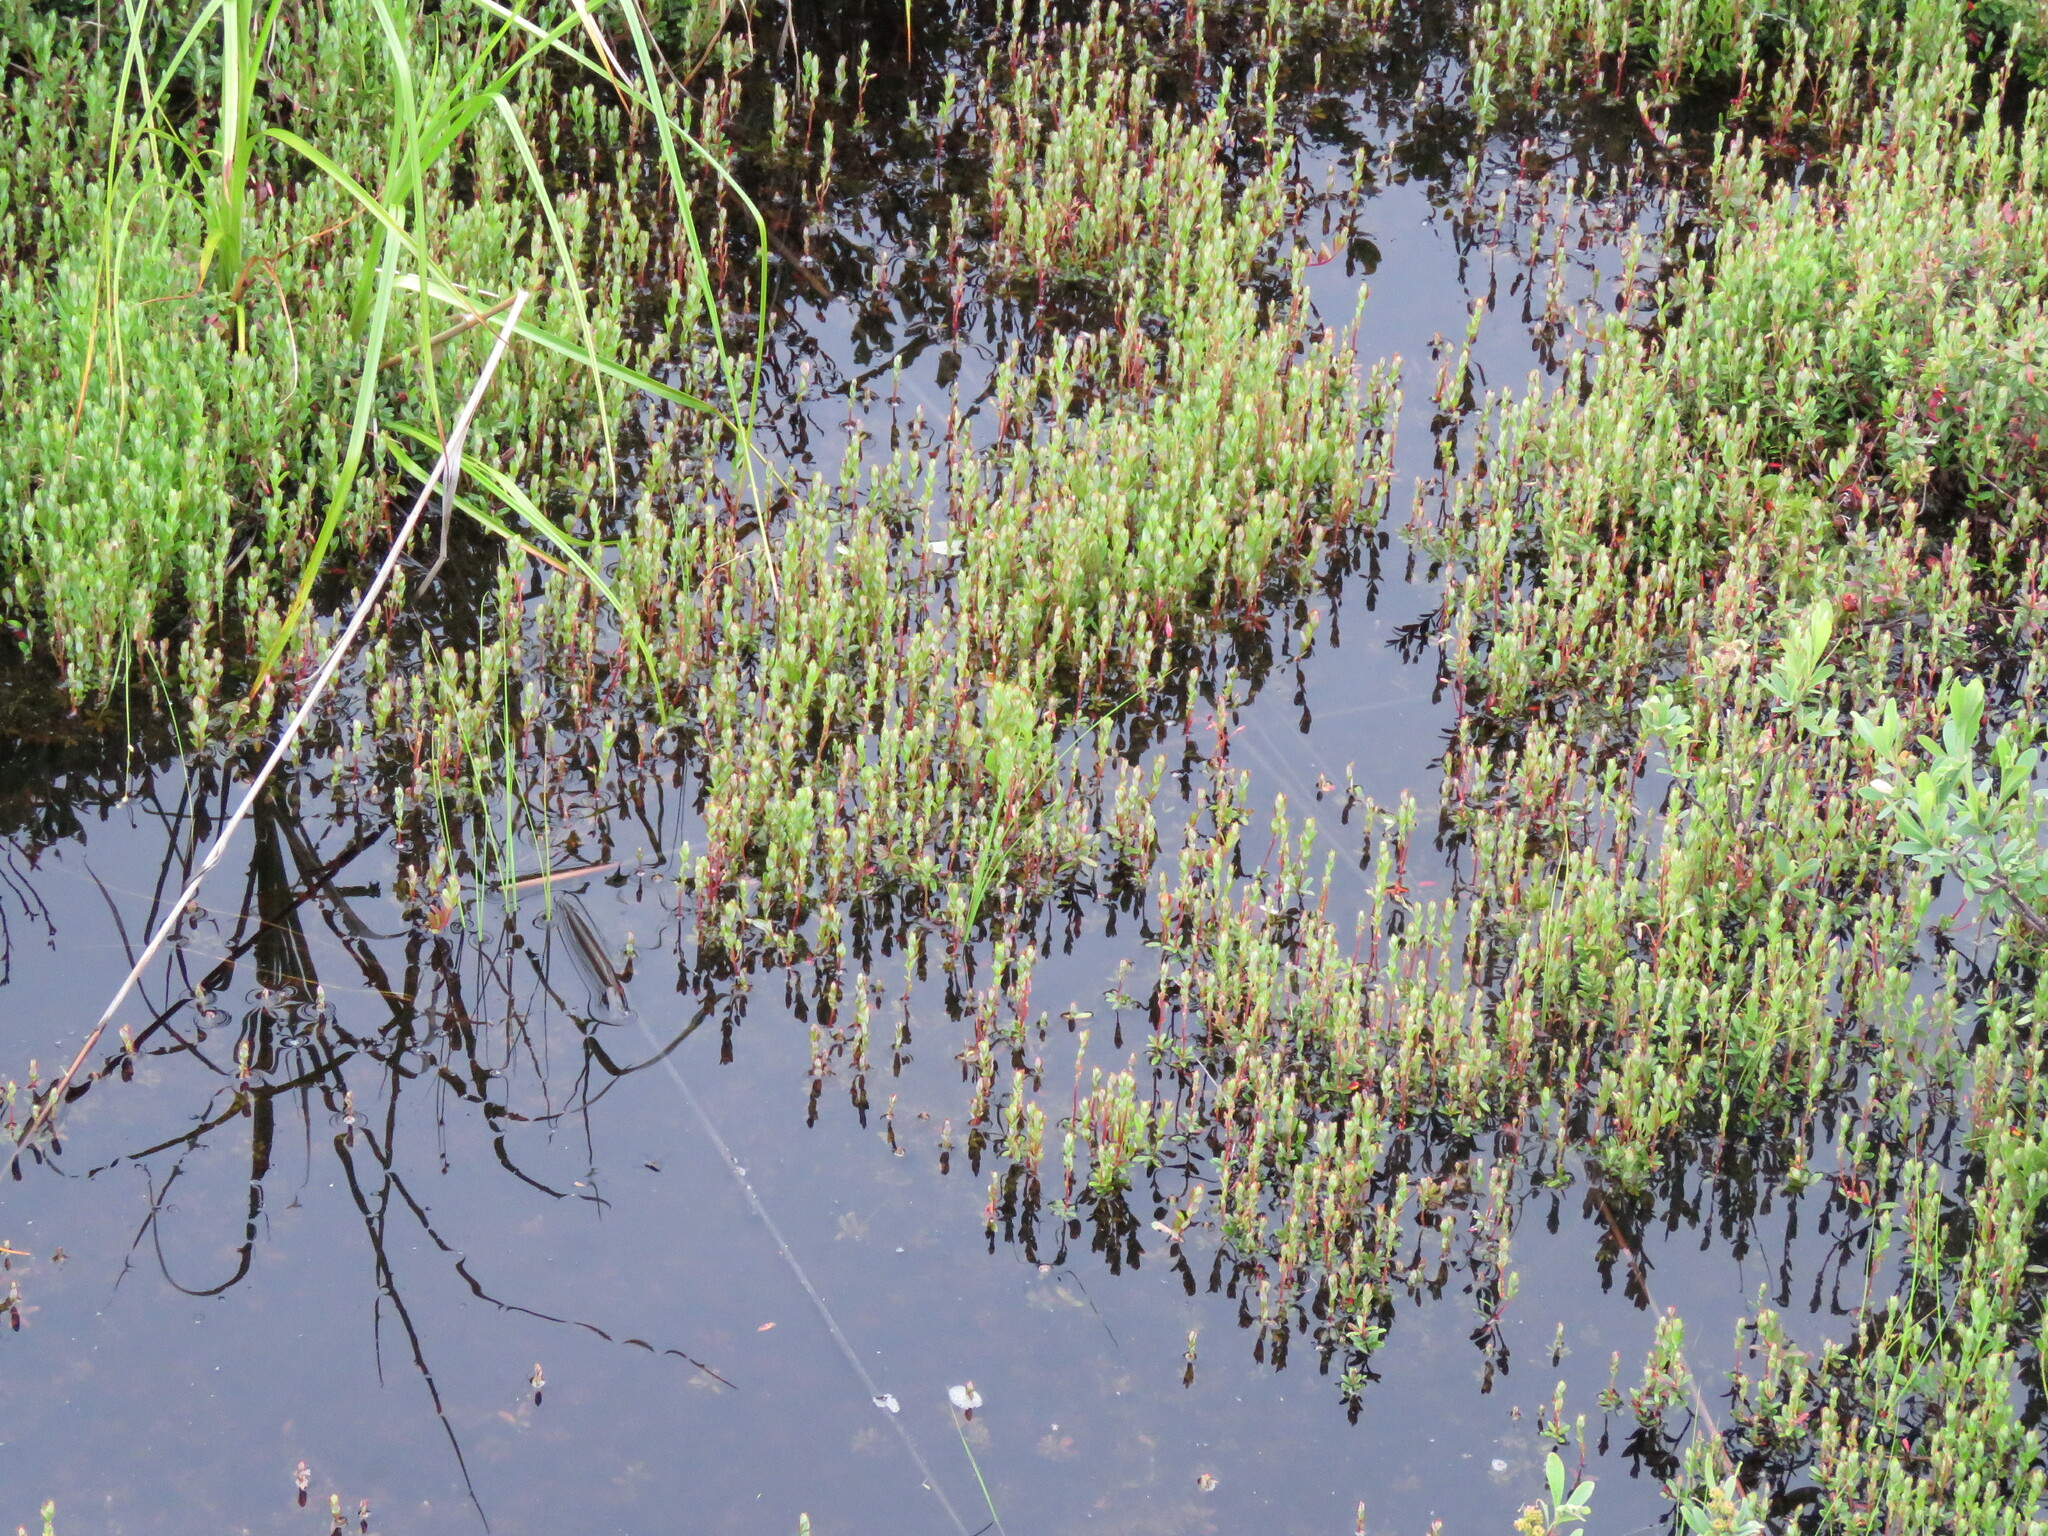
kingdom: Plantae
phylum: Tracheophyta
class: Magnoliopsida
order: Ericales
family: Ericaceae
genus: Vaccinium
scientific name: Vaccinium macrocarpon
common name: American cranberry
